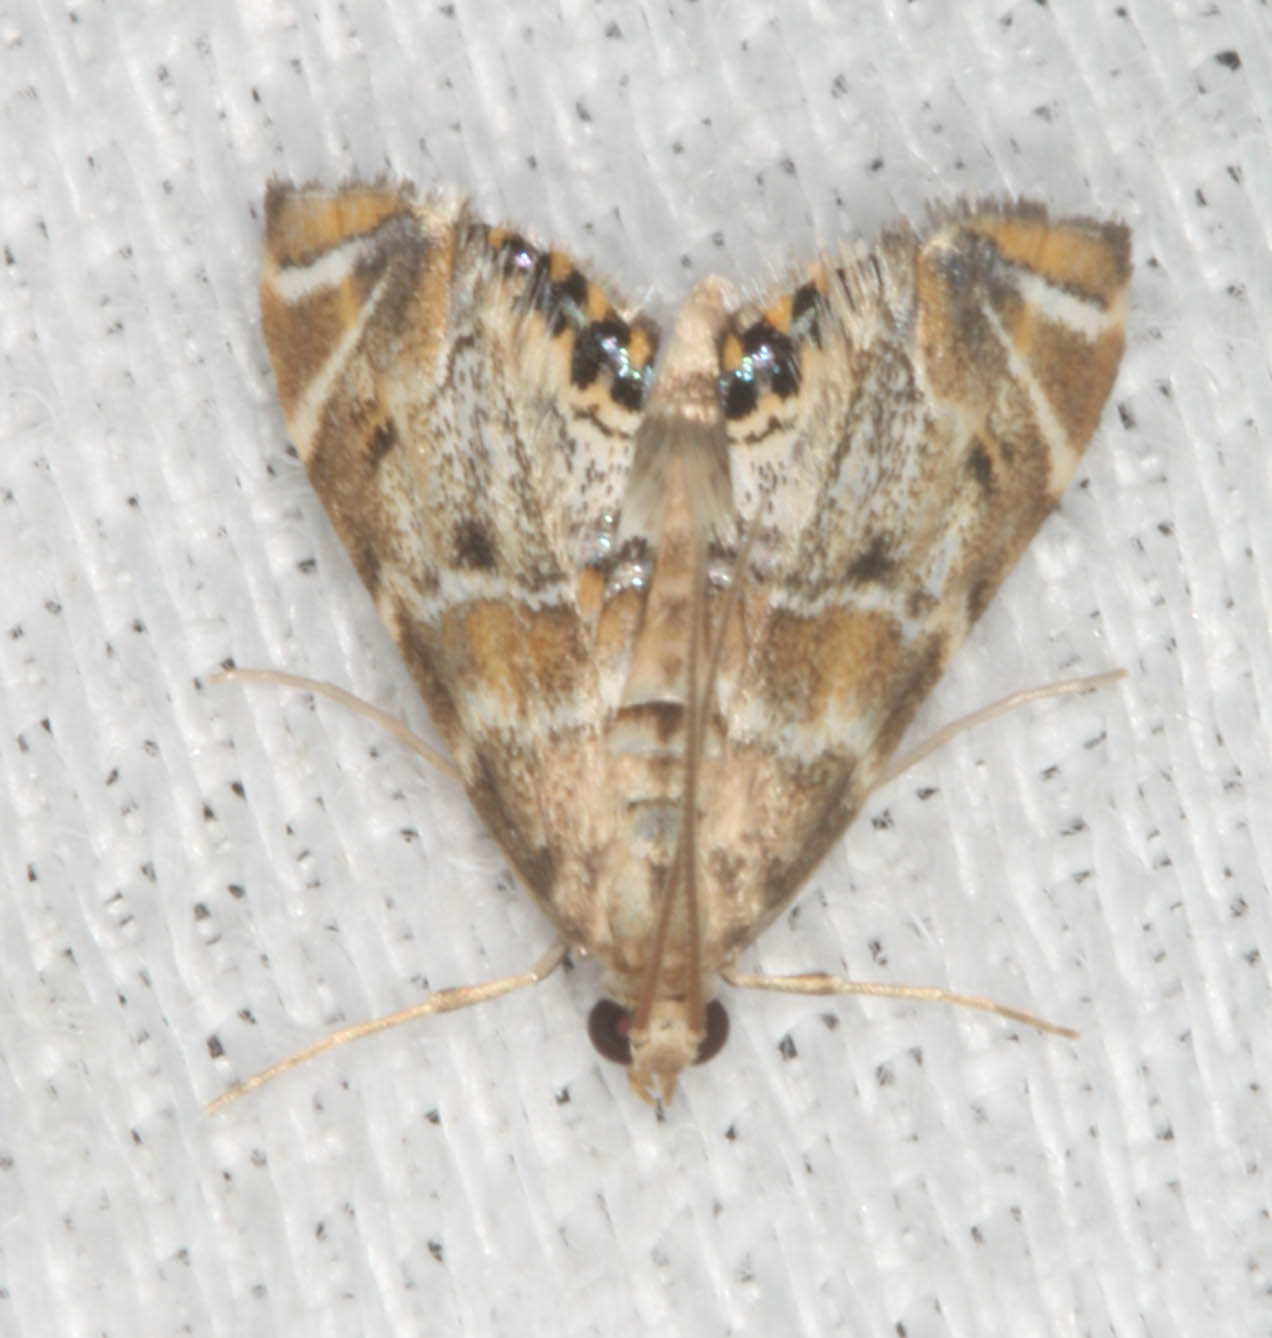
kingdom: Animalia
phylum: Arthropoda
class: Insecta
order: Lepidoptera
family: Crambidae
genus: Petrophila
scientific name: Petrophila confusalis
